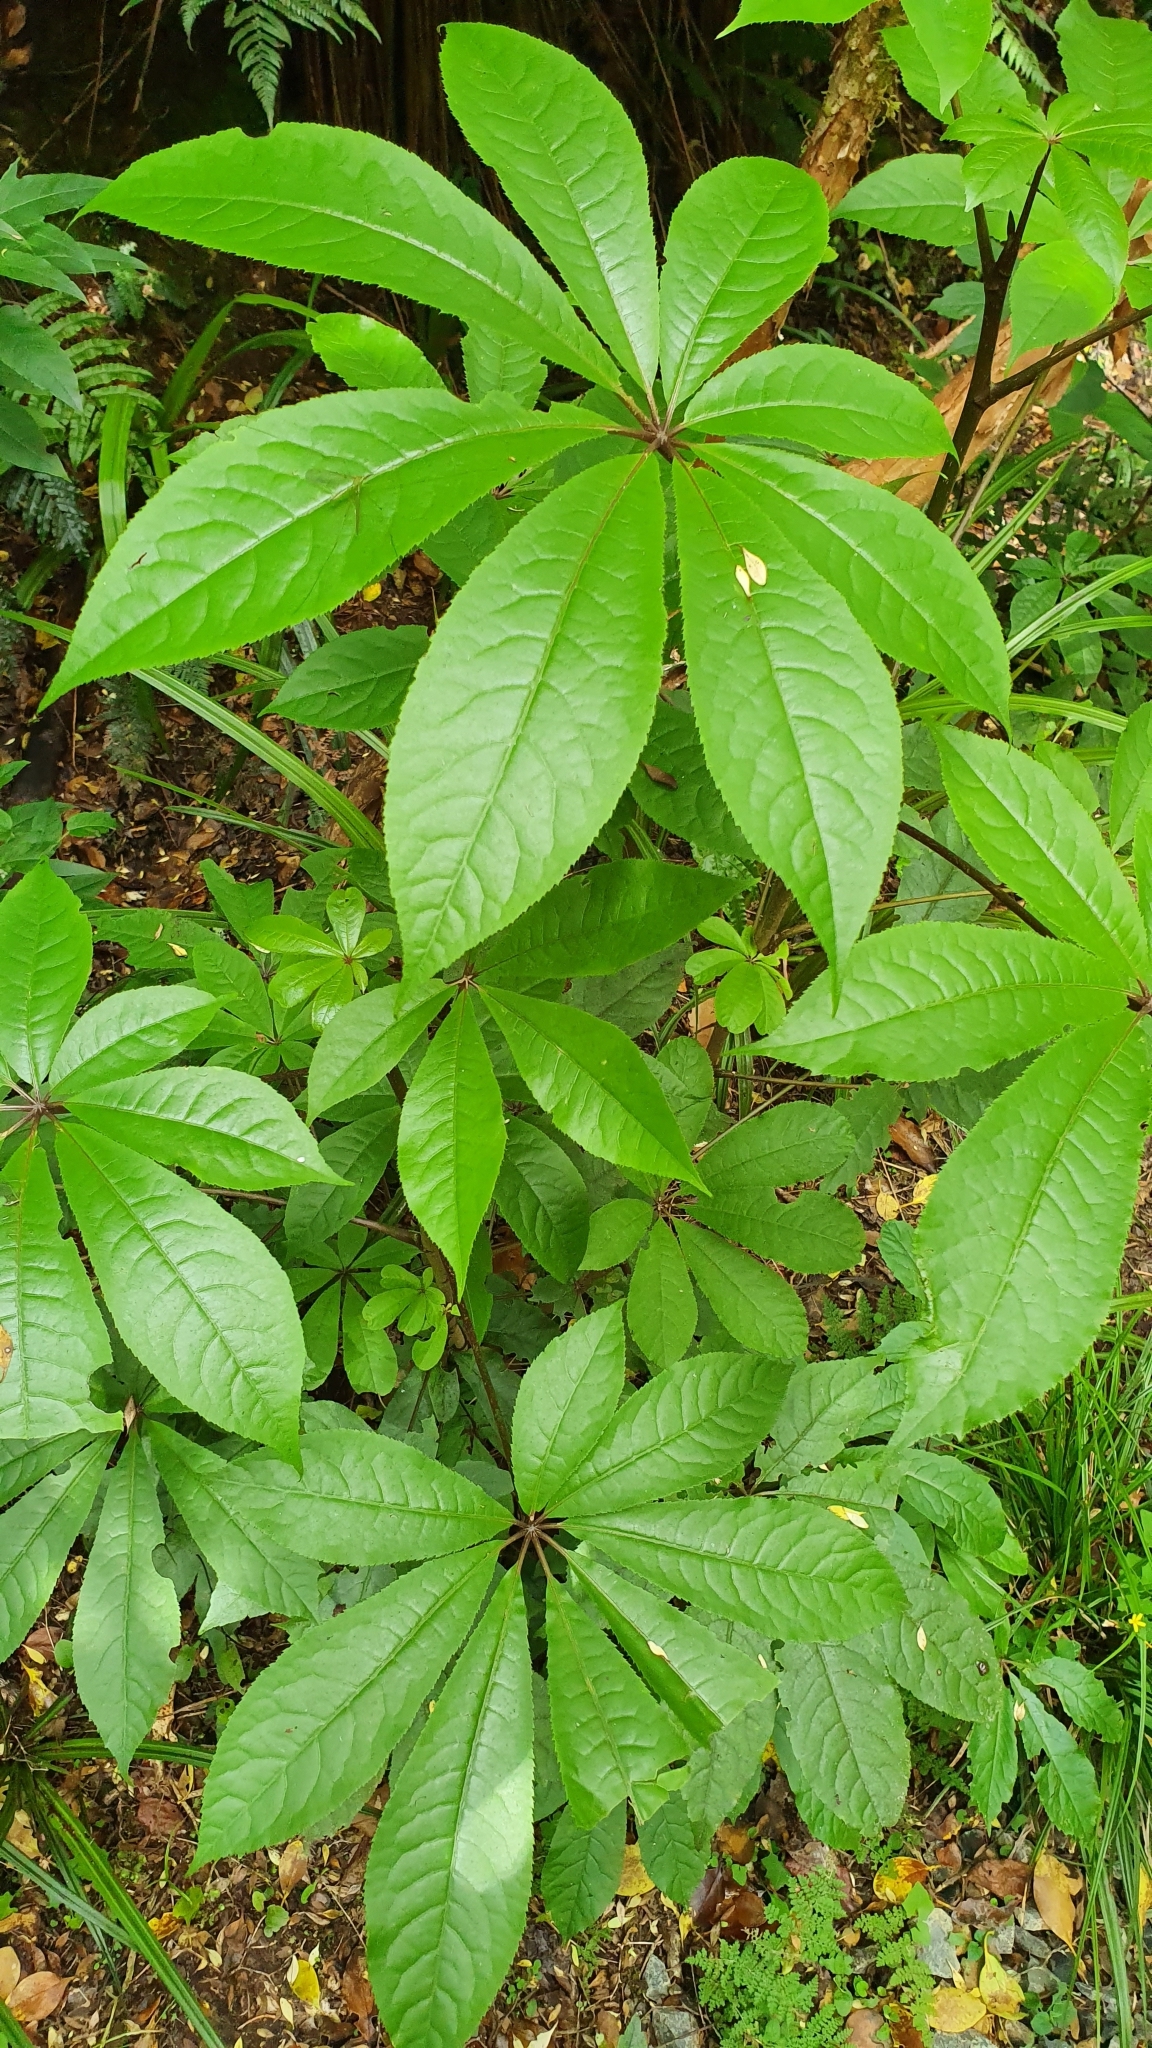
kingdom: Plantae
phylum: Tracheophyta
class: Magnoliopsida
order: Apiales
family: Araliaceae
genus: Schefflera
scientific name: Schefflera digitata
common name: Pate
